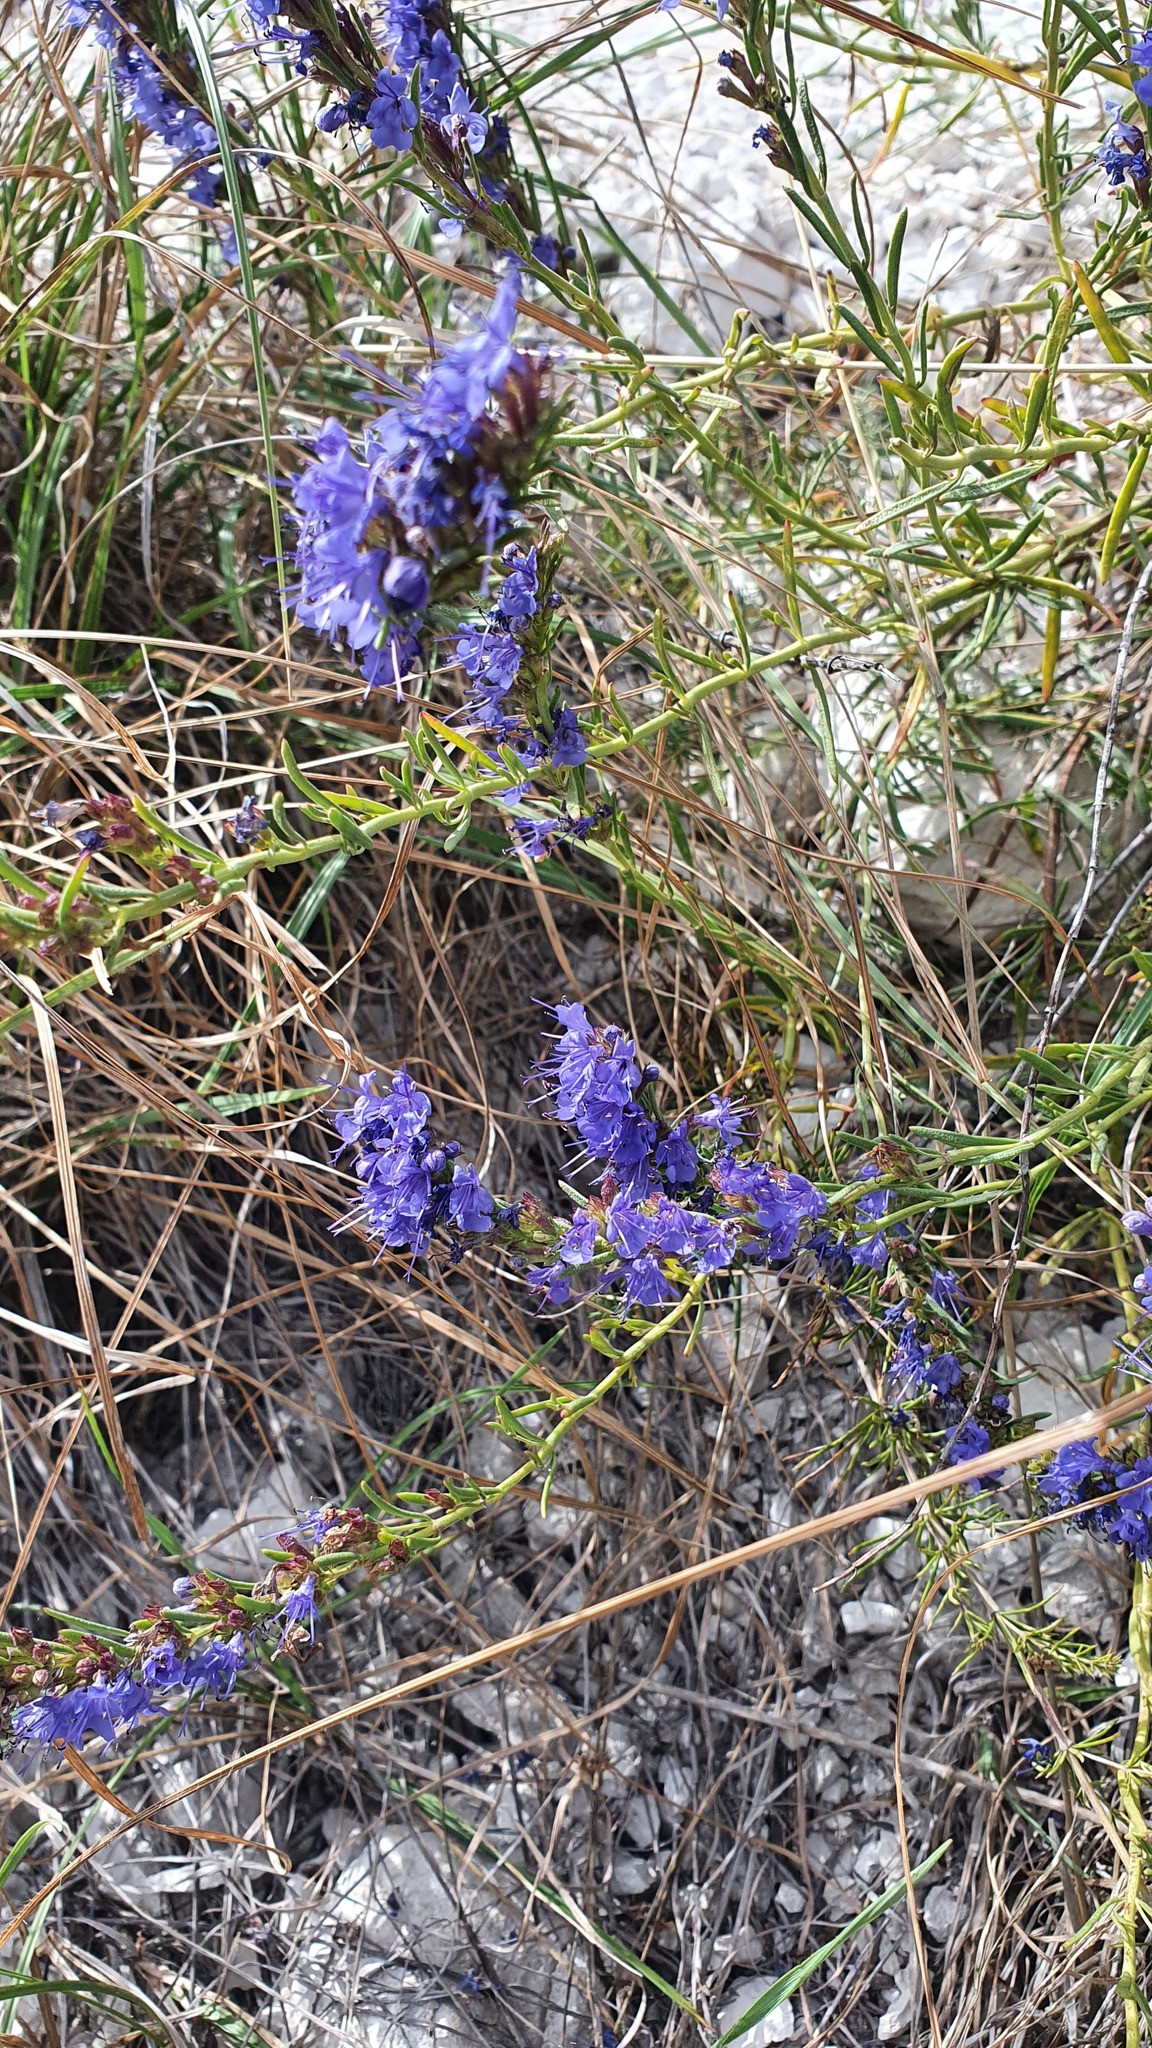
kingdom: Plantae
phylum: Tracheophyta
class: Magnoliopsida
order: Lamiales
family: Lamiaceae
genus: Hyssopus
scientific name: Hyssopus officinalis
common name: Hyssop
